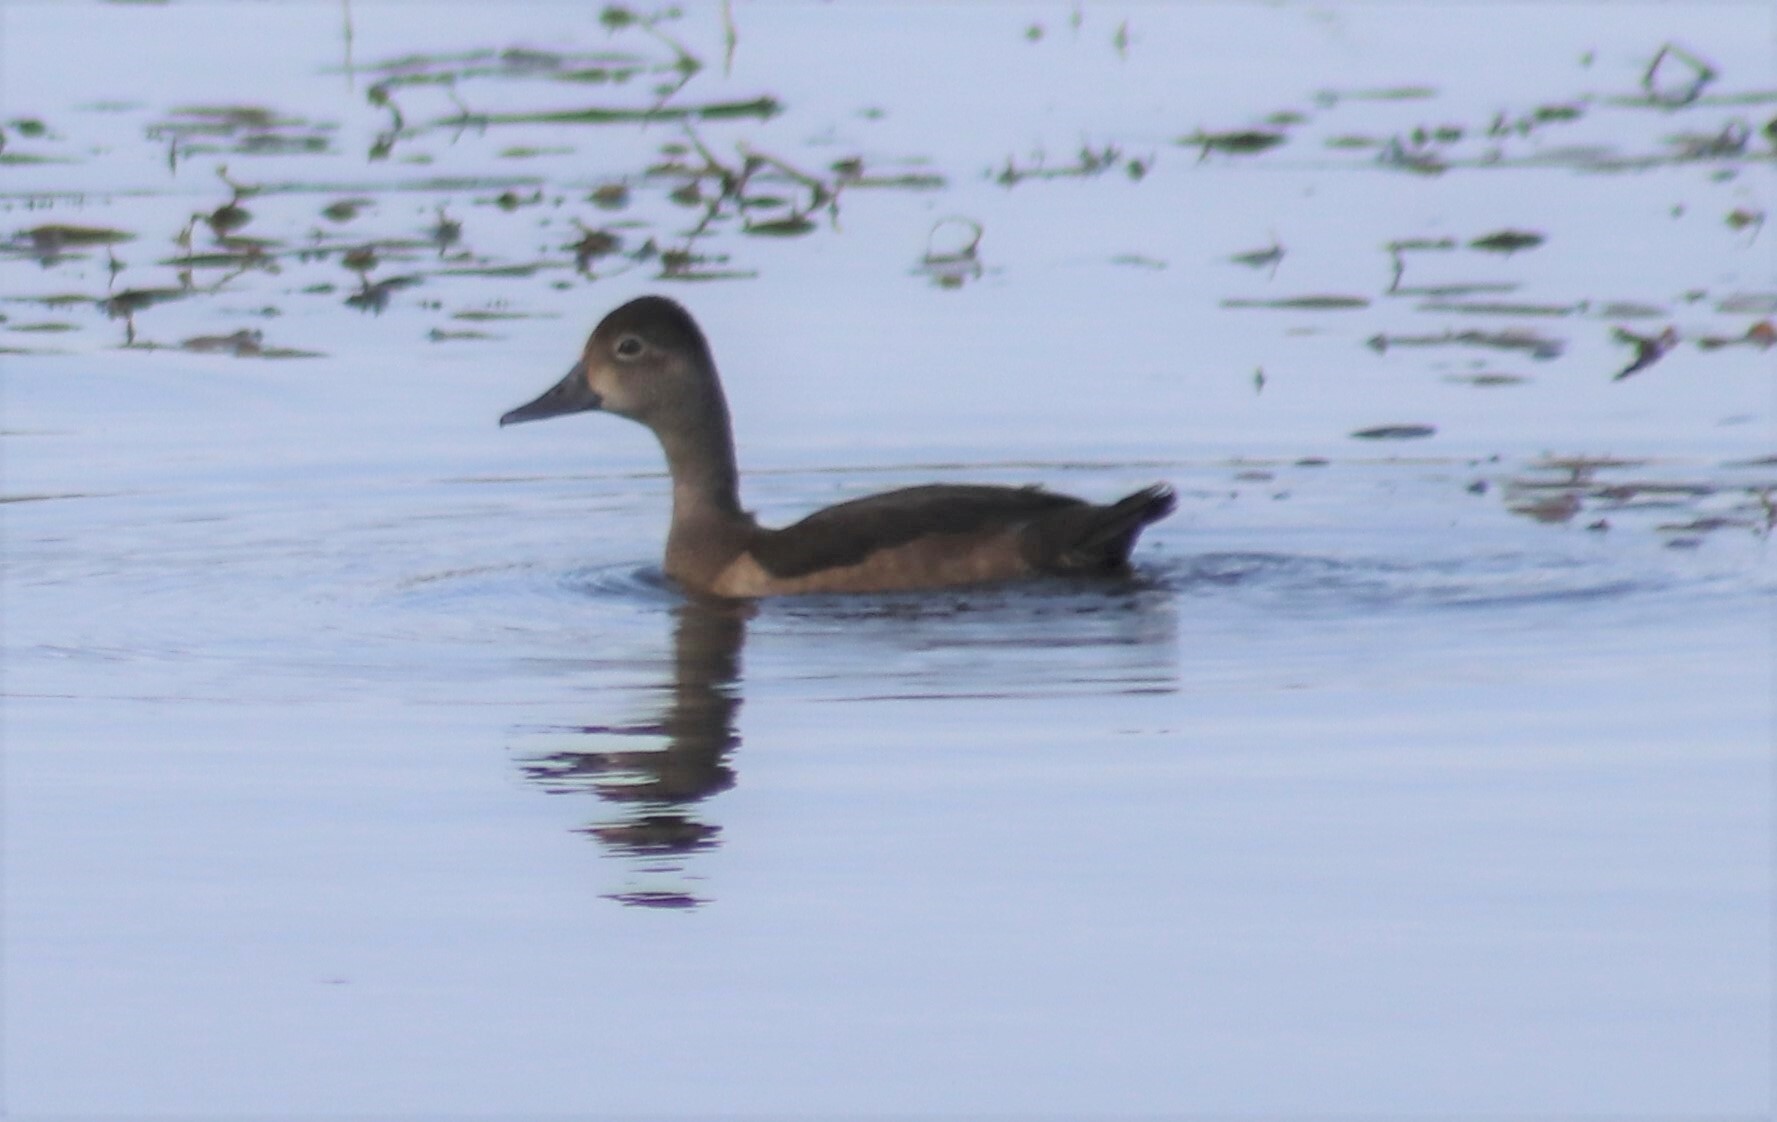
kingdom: Animalia
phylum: Chordata
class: Aves
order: Anseriformes
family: Anatidae
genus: Aythya
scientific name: Aythya collaris
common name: Ring-necked duck
